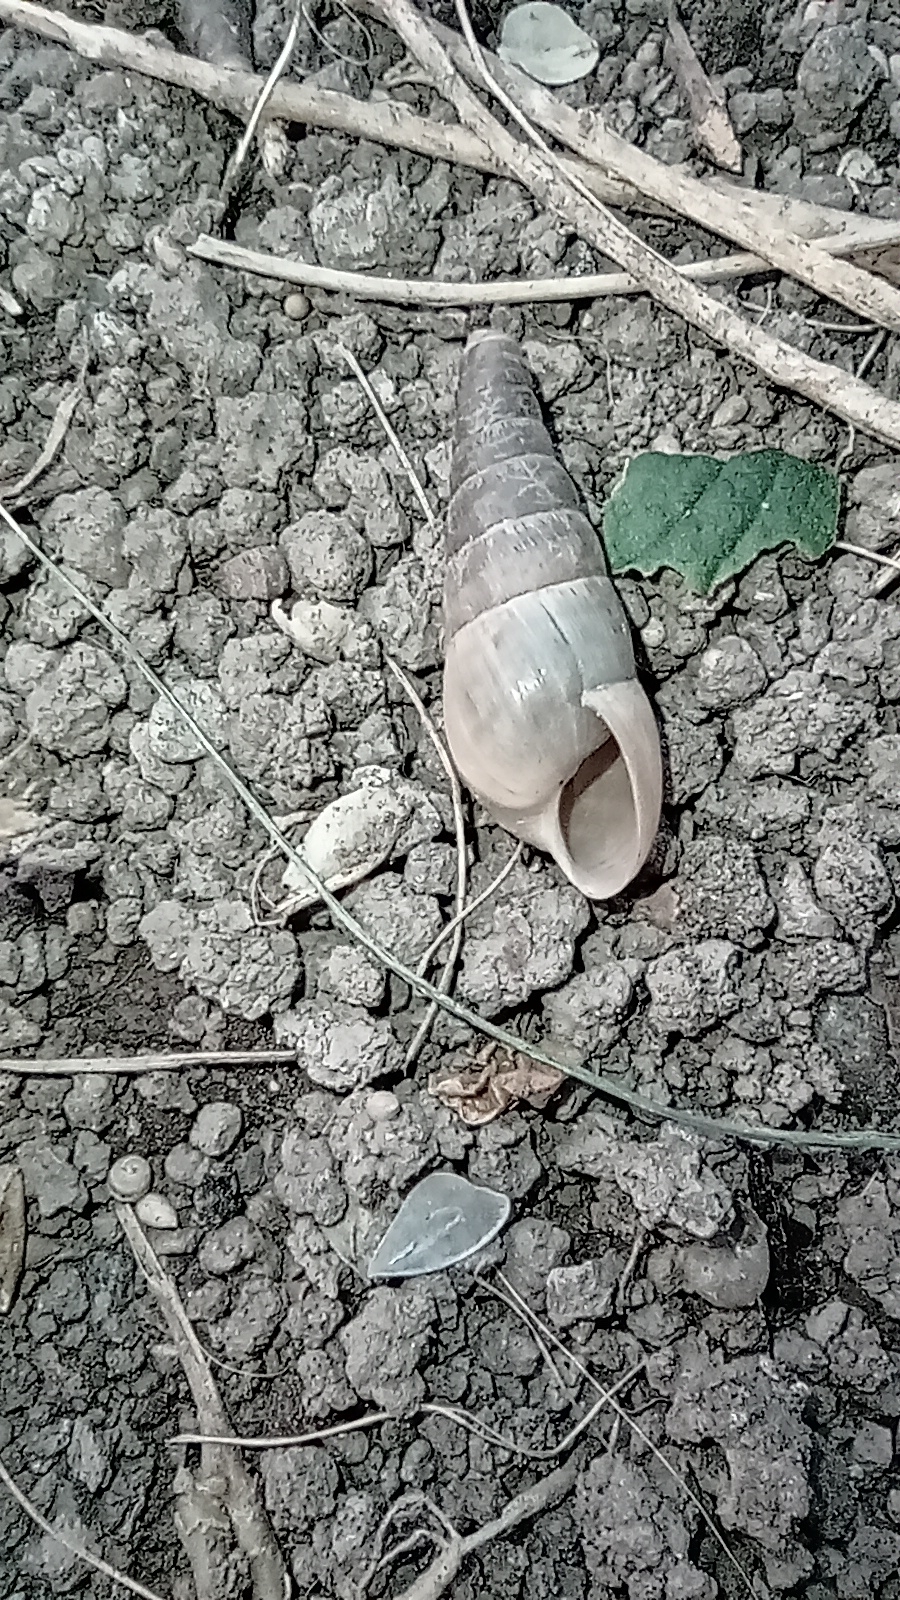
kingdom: Animalia
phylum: Mollusca
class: Gastropoda
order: Stylommatophora
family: Achatinidae
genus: Rumina
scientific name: Rumina decollata
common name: Decollate snail
